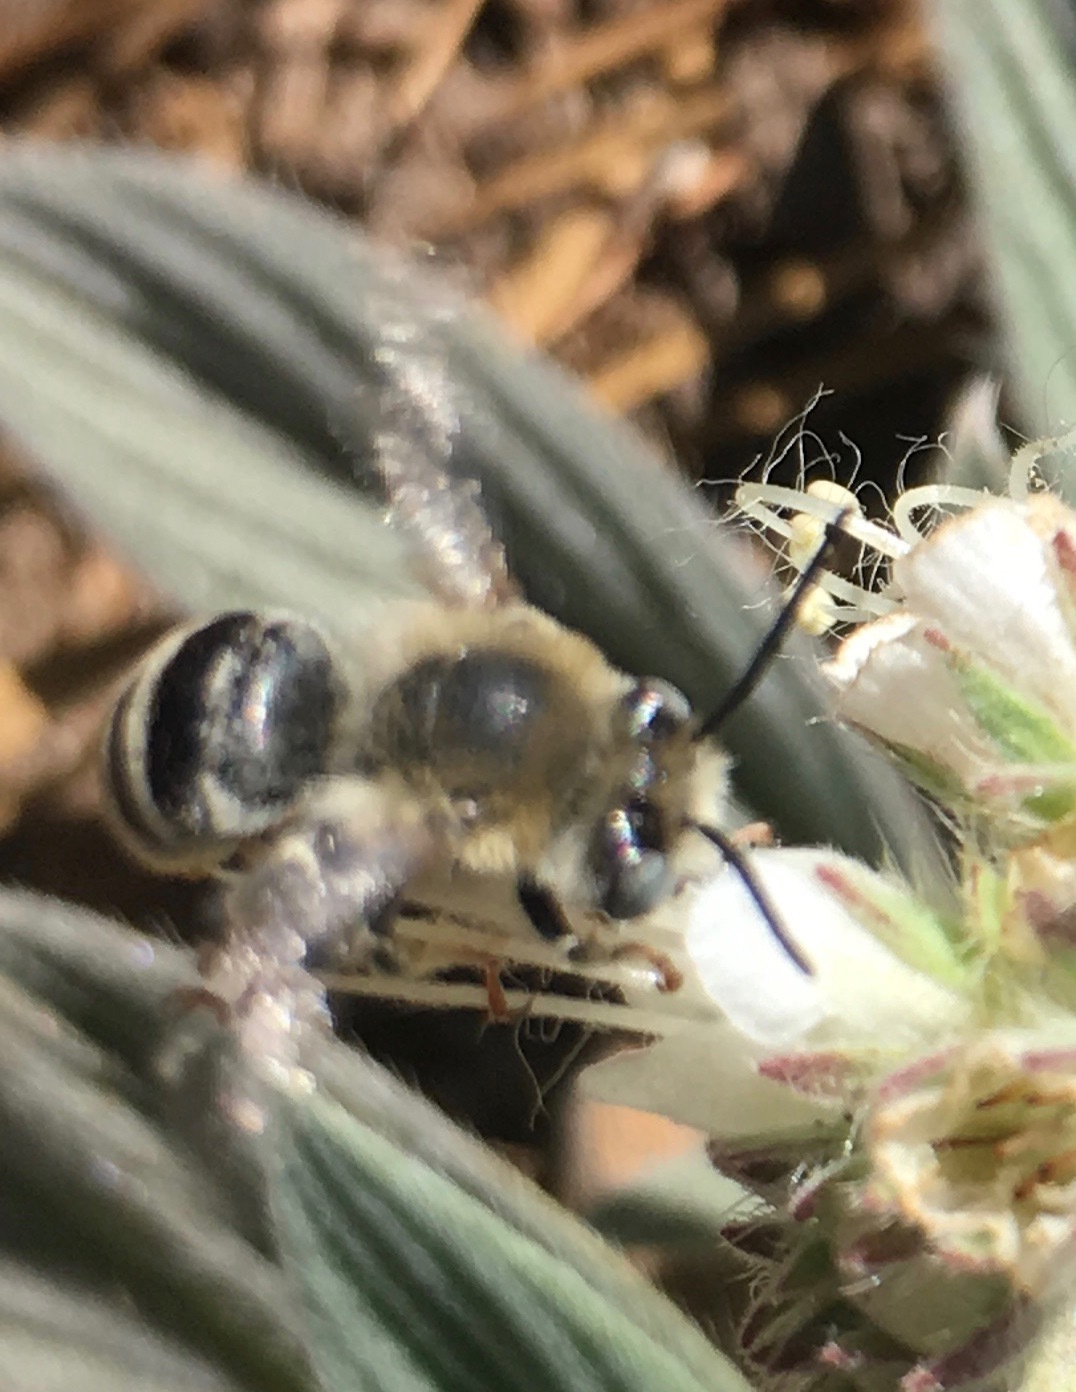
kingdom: Animalia
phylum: Arthropoda
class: Insecta
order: Hymenoptera
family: Apidae
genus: Anthophora
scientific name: Anthophora urbana
